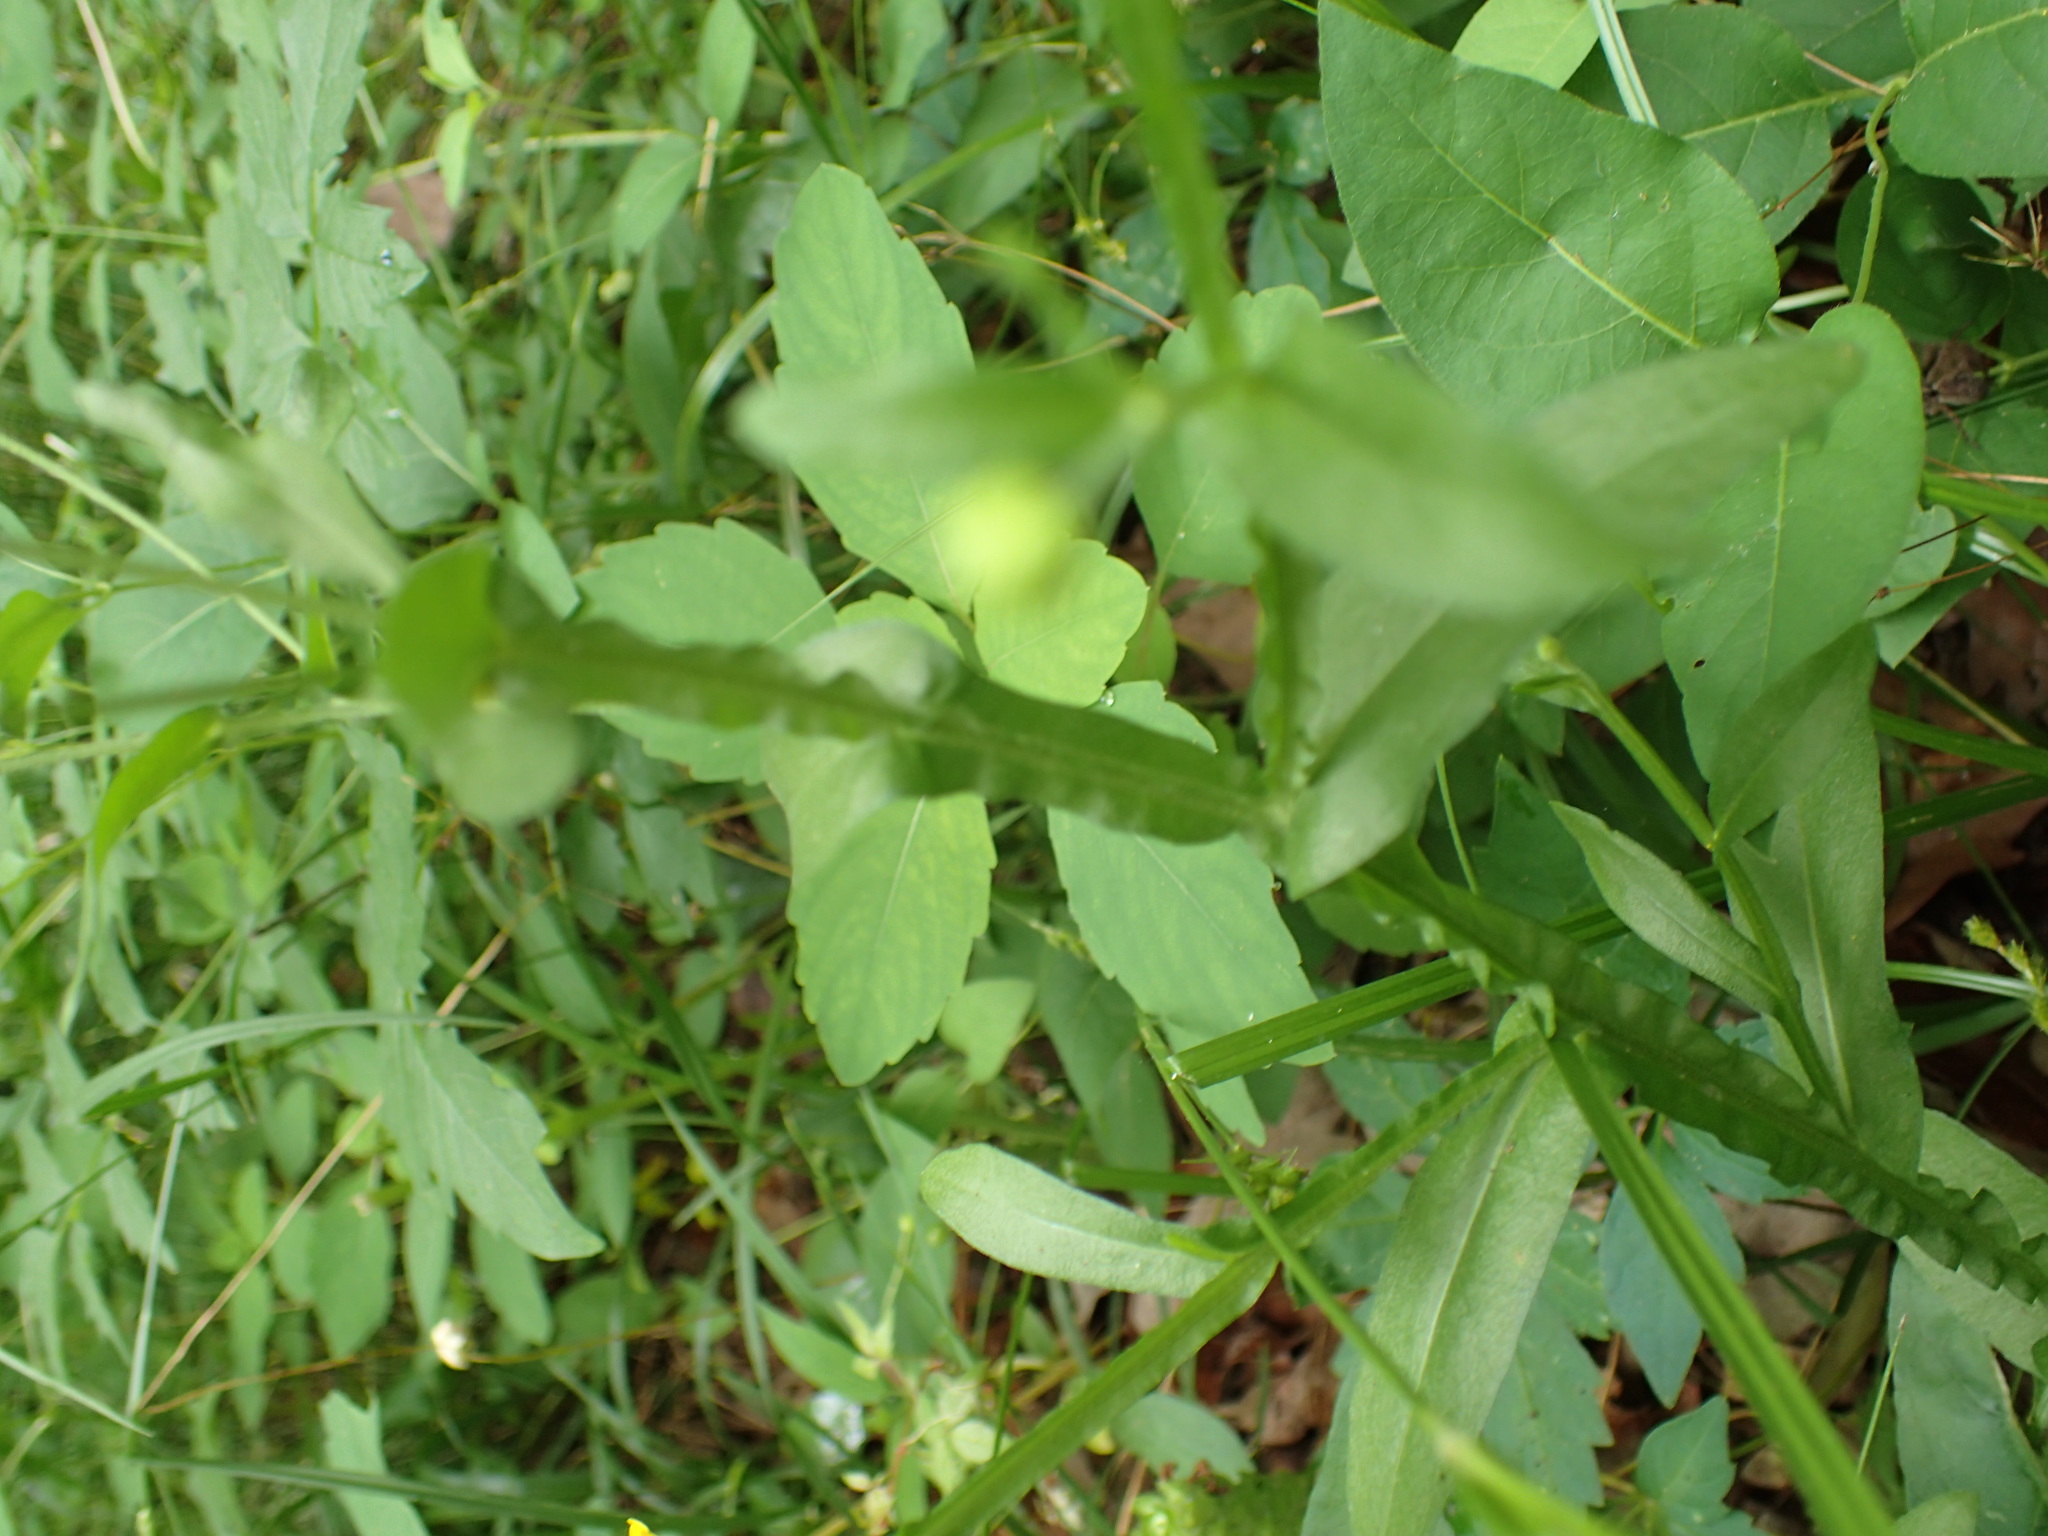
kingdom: Plantae
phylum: Tracheophyta
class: Magnoliopsida
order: Asterales
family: Asteraceae
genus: Helenium
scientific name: Helenium flexuosum
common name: Naked-flowered sneezeweed
